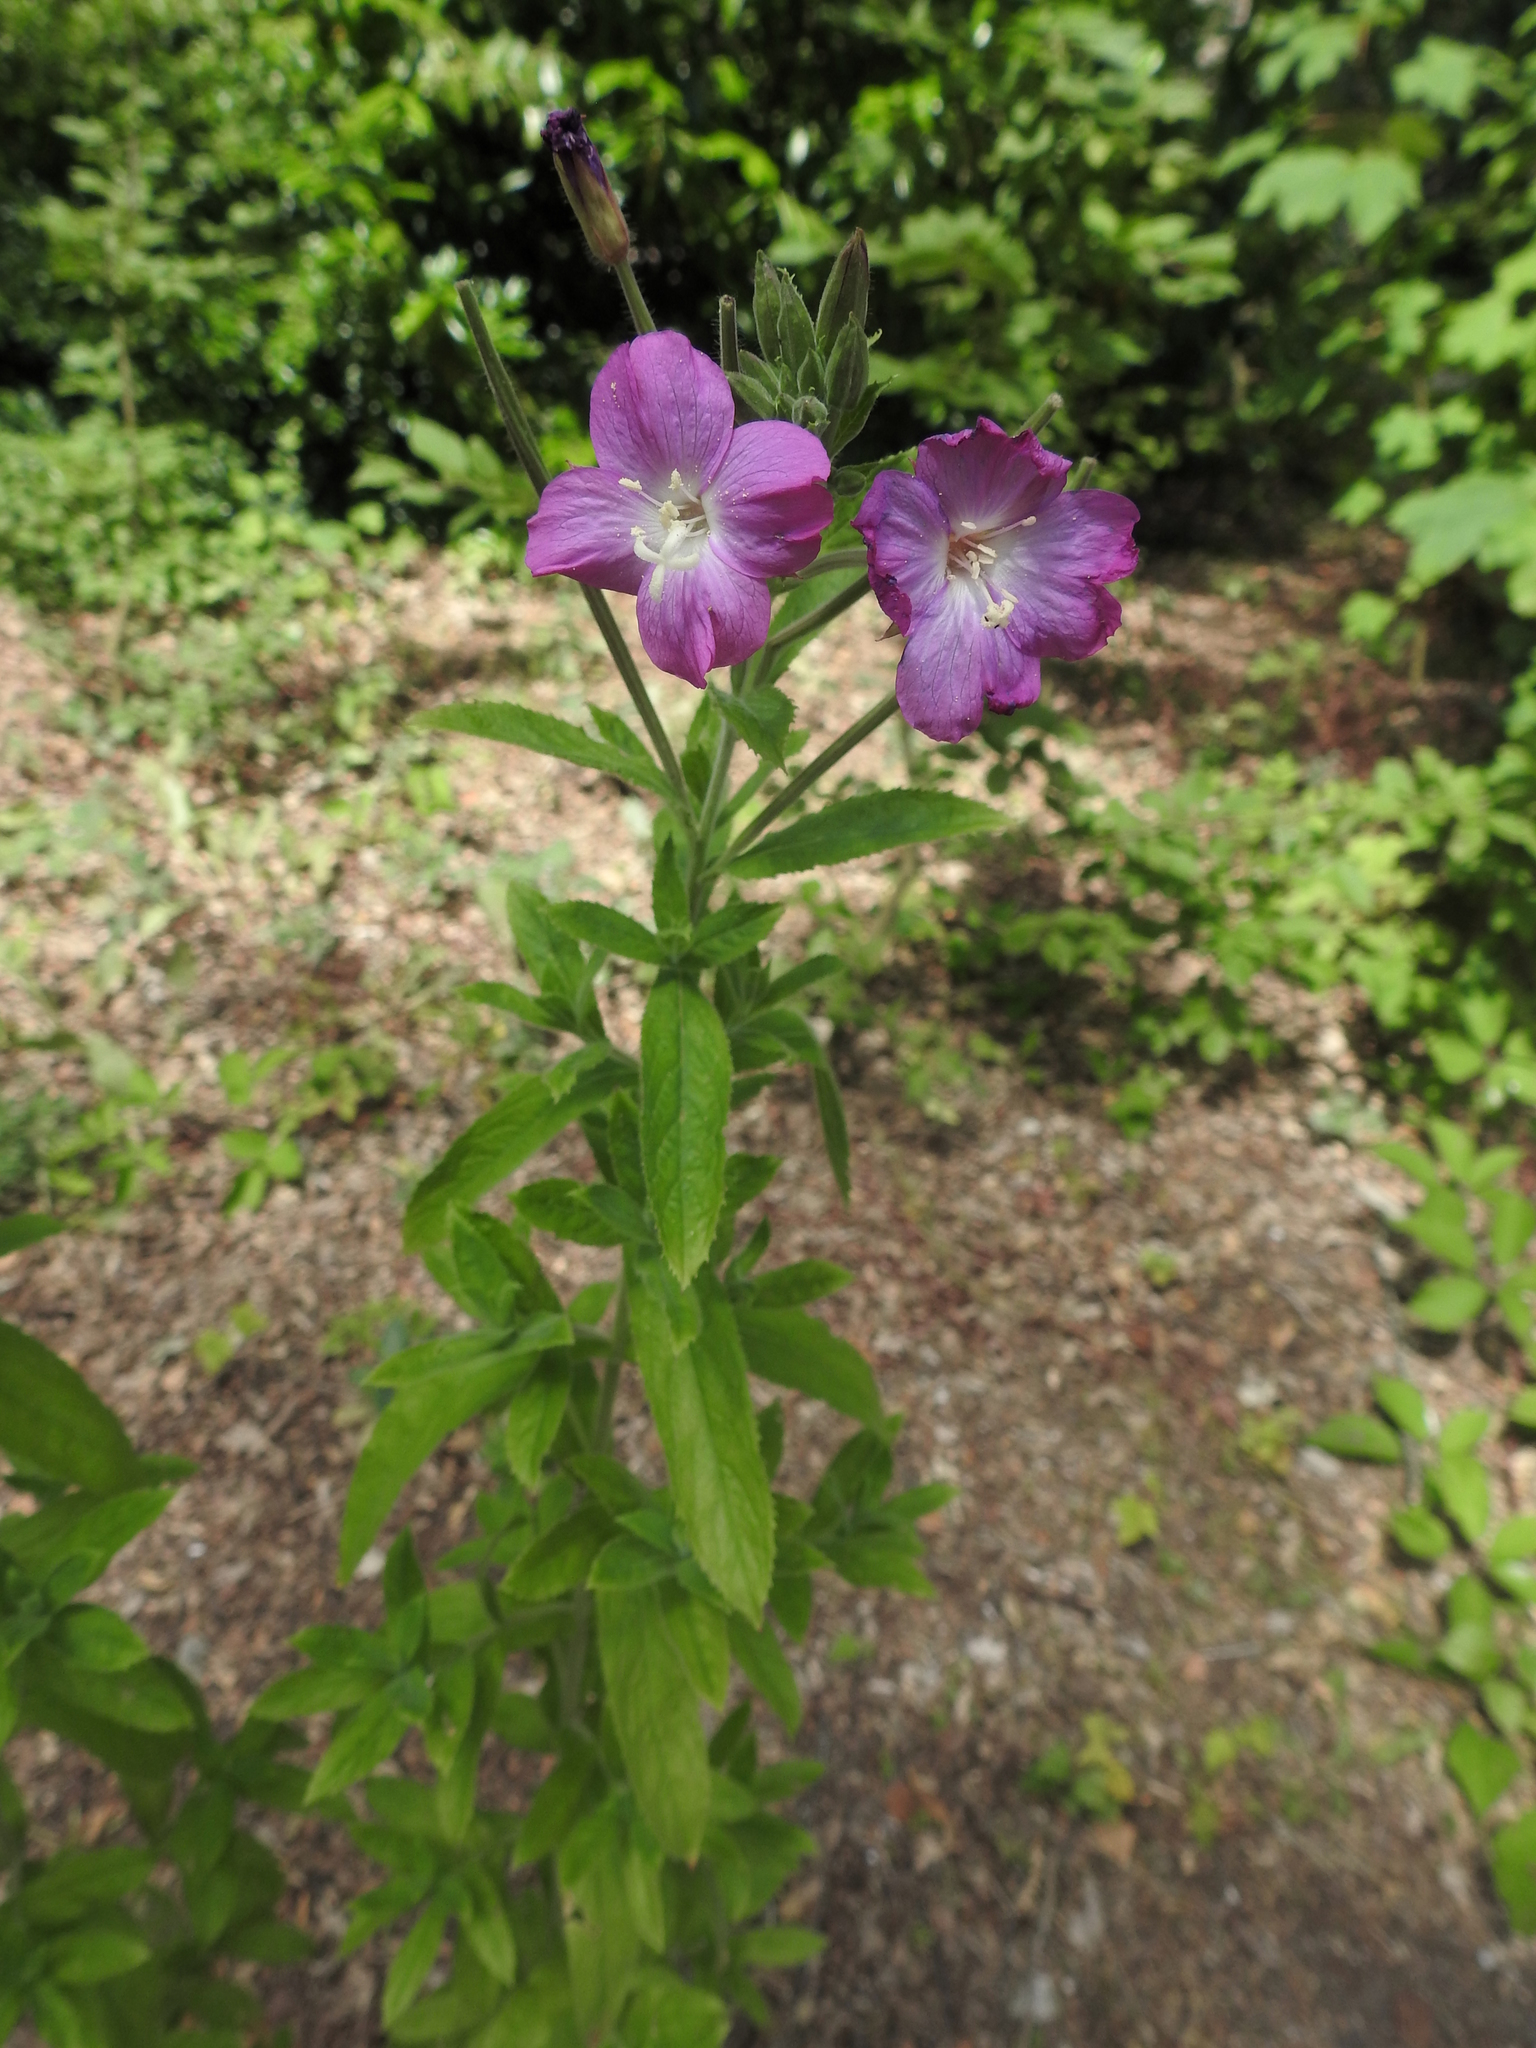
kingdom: Plantae
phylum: Tracheophyta
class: Magnoliopsida
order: Myrtales
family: Onagraceae
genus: Epilobium
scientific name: Epilobium hirsutum
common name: Great willowherb
